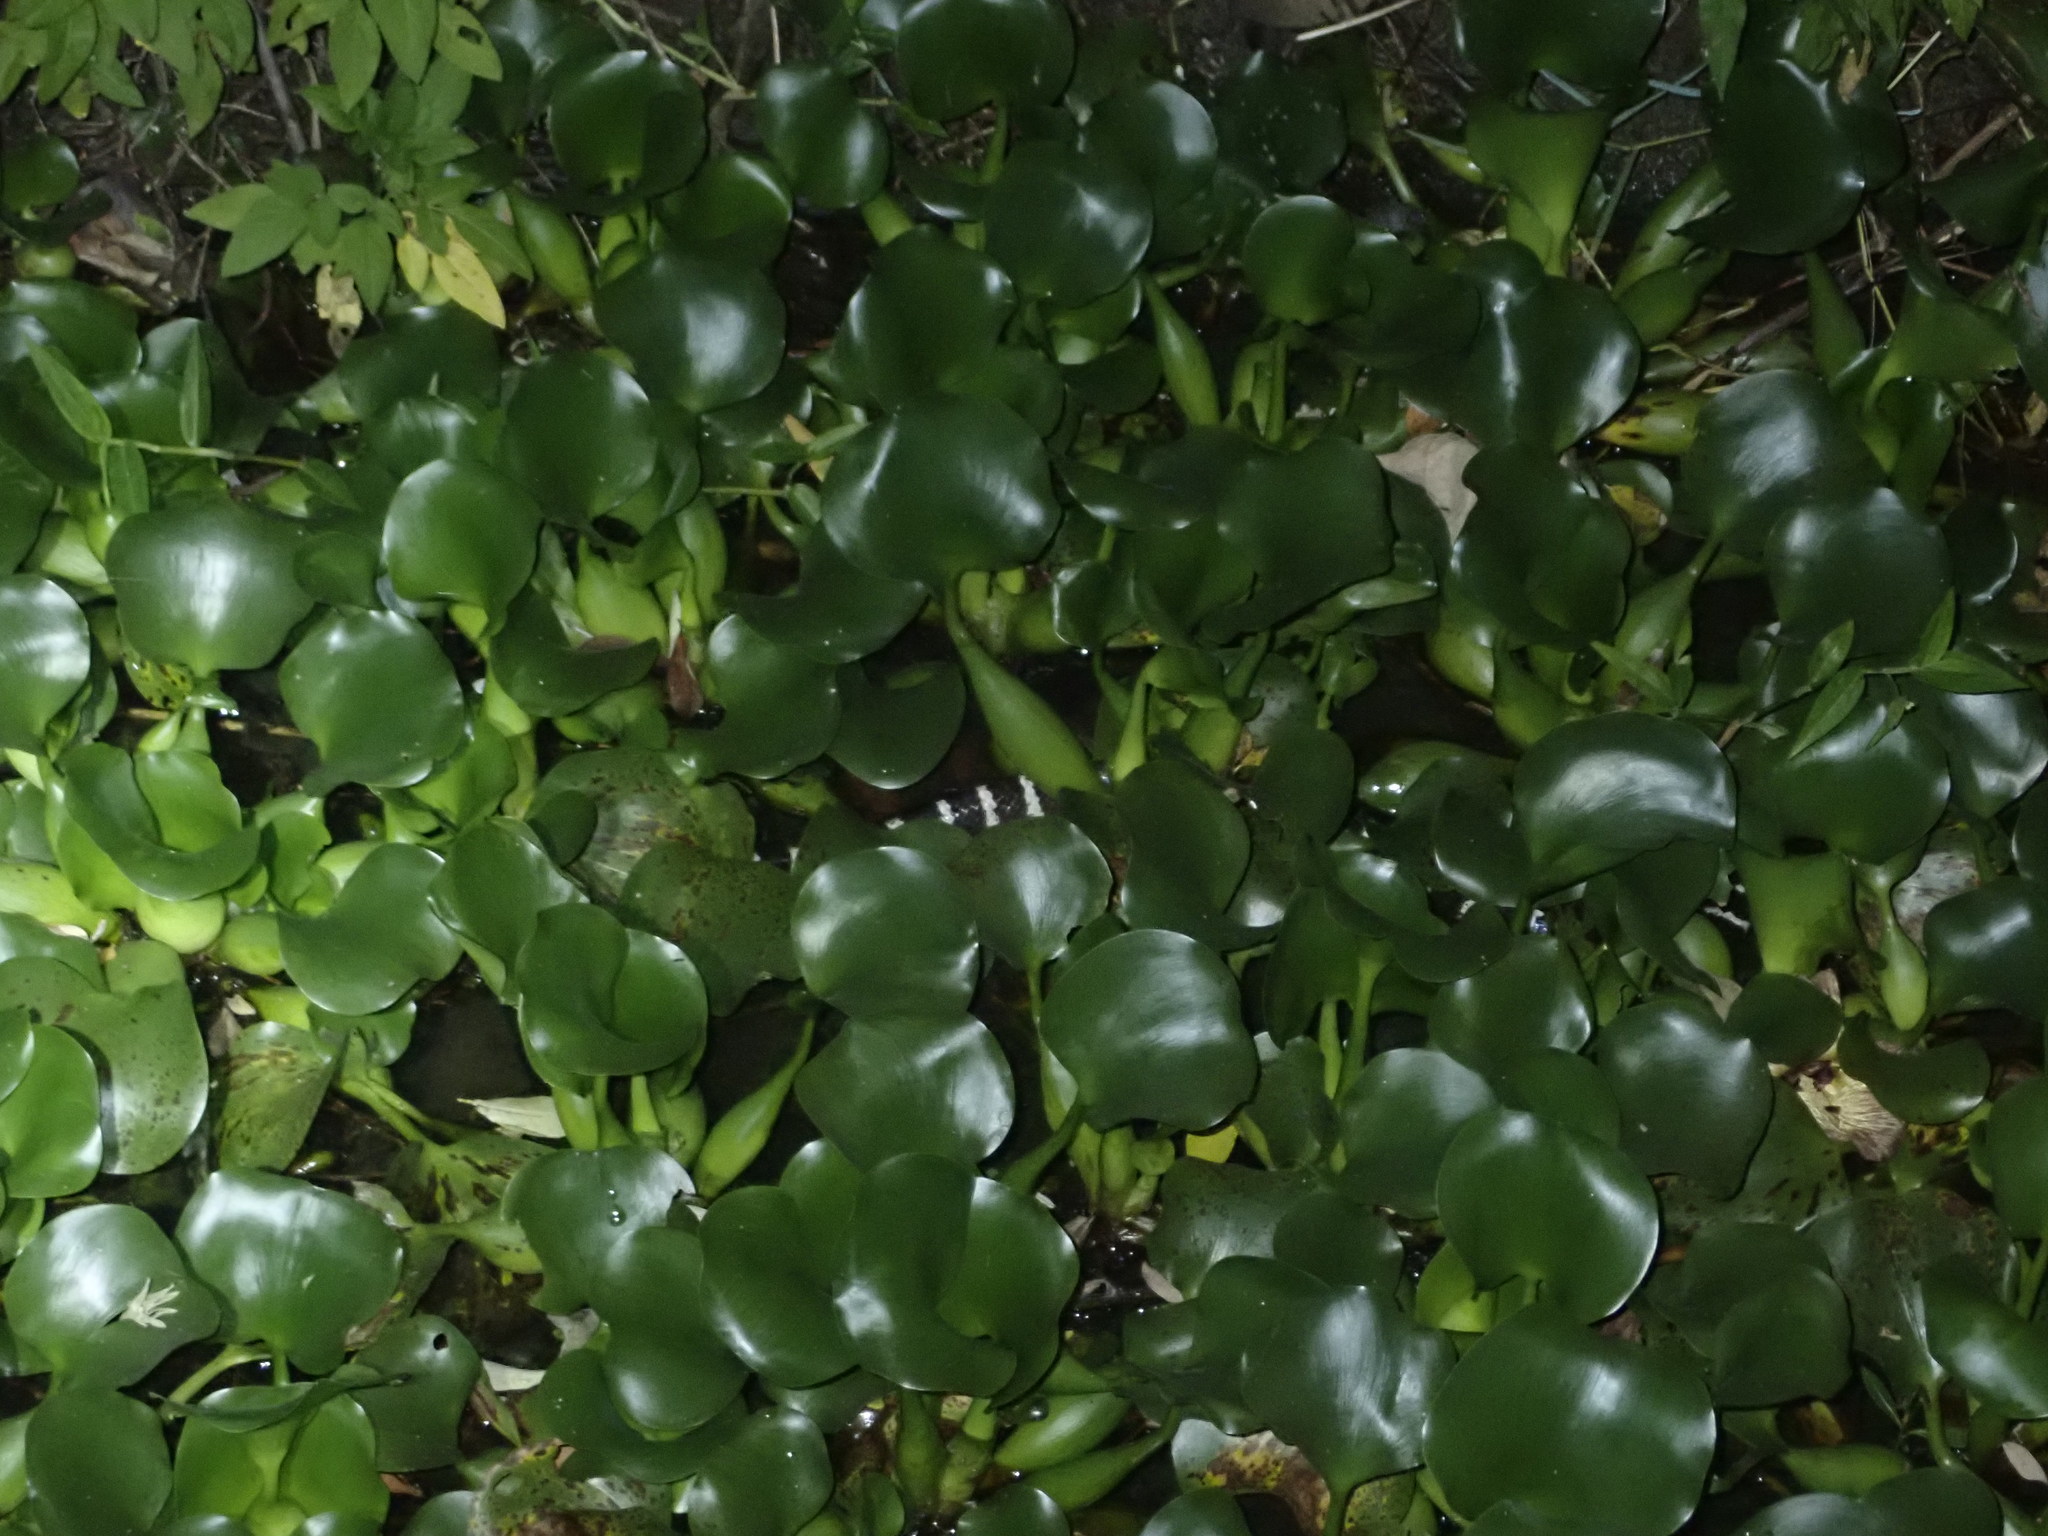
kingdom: Animalia
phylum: Chordata
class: Squamata
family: Elapidae
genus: Bungarus
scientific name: Bungarus multicinctus
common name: Many-banded krait
